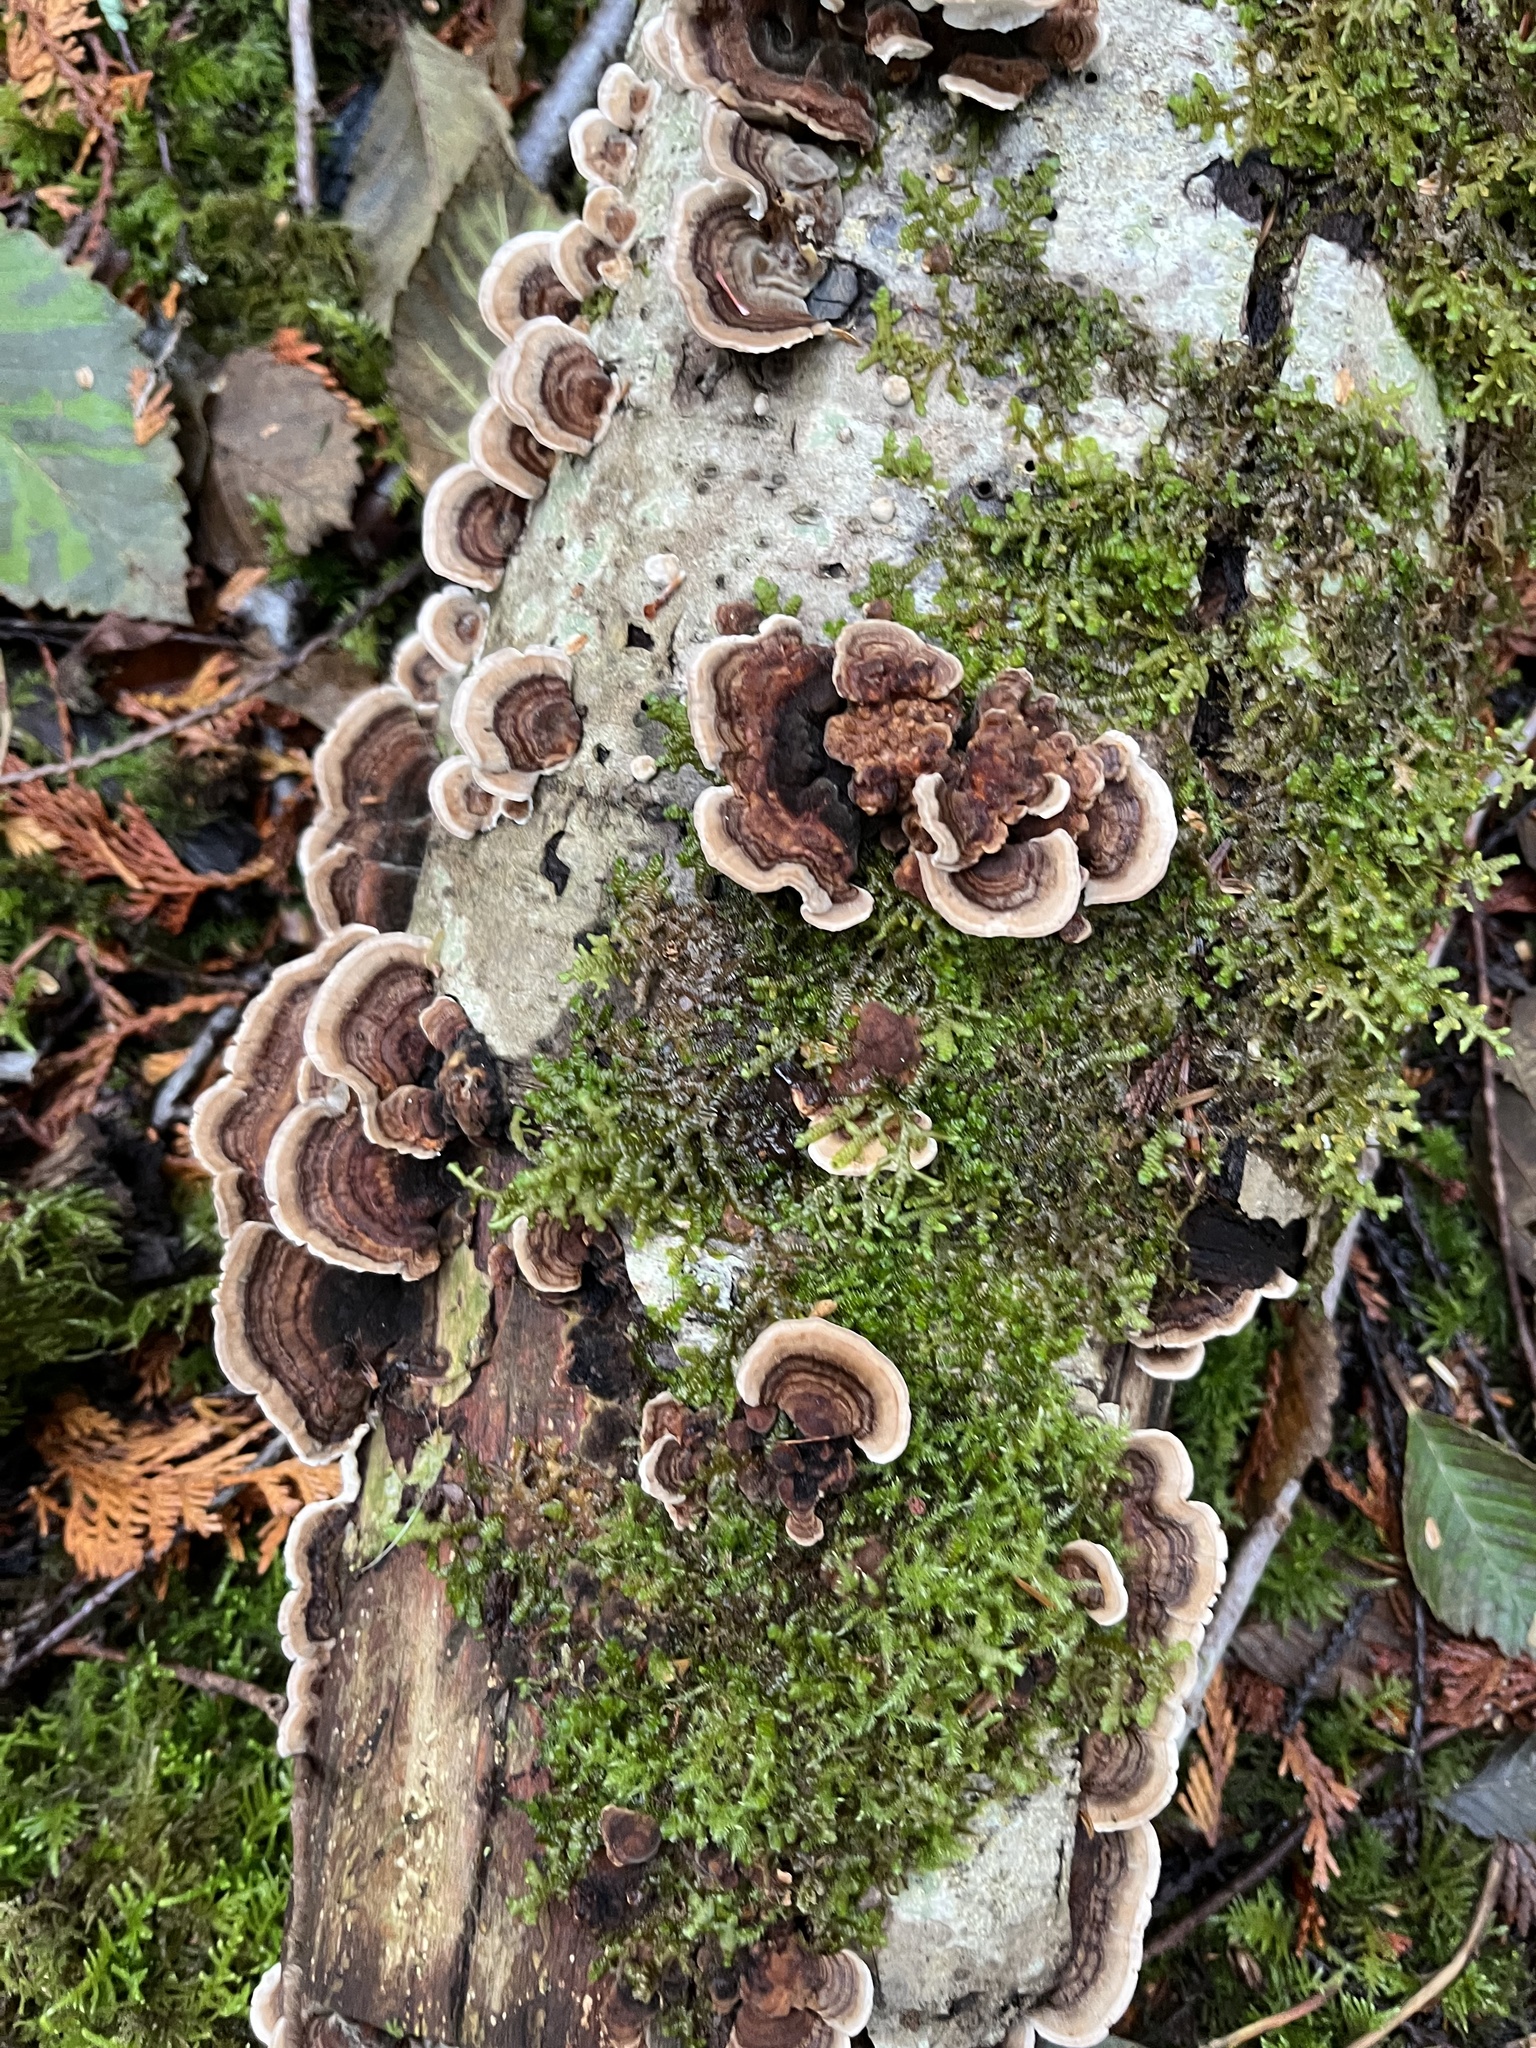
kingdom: Fungi
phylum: Basidiomycota
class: Agaricomycetes
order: Polyporales
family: Polyporaceae
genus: Trametes
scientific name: Trametes versicolor
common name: Turkeytail
